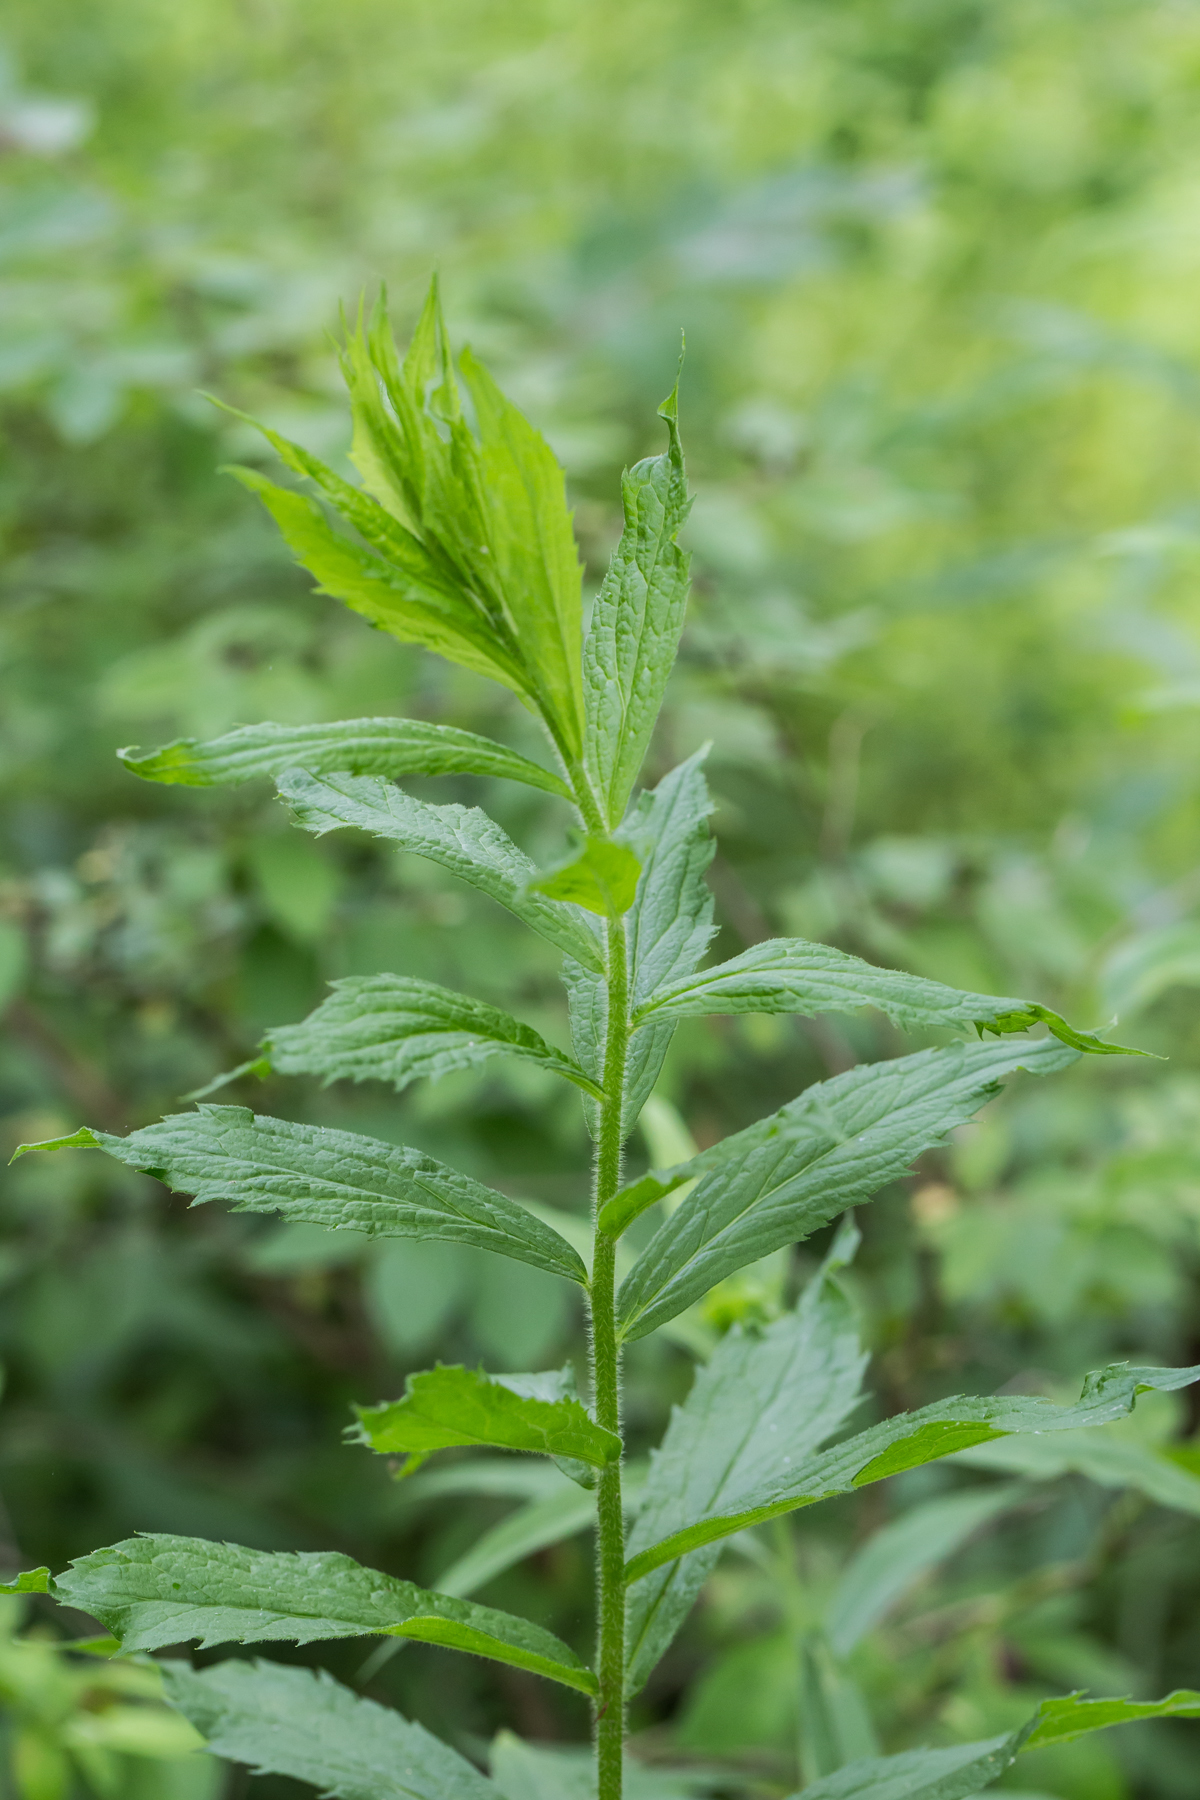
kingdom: Plantae
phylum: Tracheophyta
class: Magnoliopsida
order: Asterales
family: Asteraceae
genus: Solidago
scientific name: Solidago rugosa
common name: Rough-stemmed goldenrod
